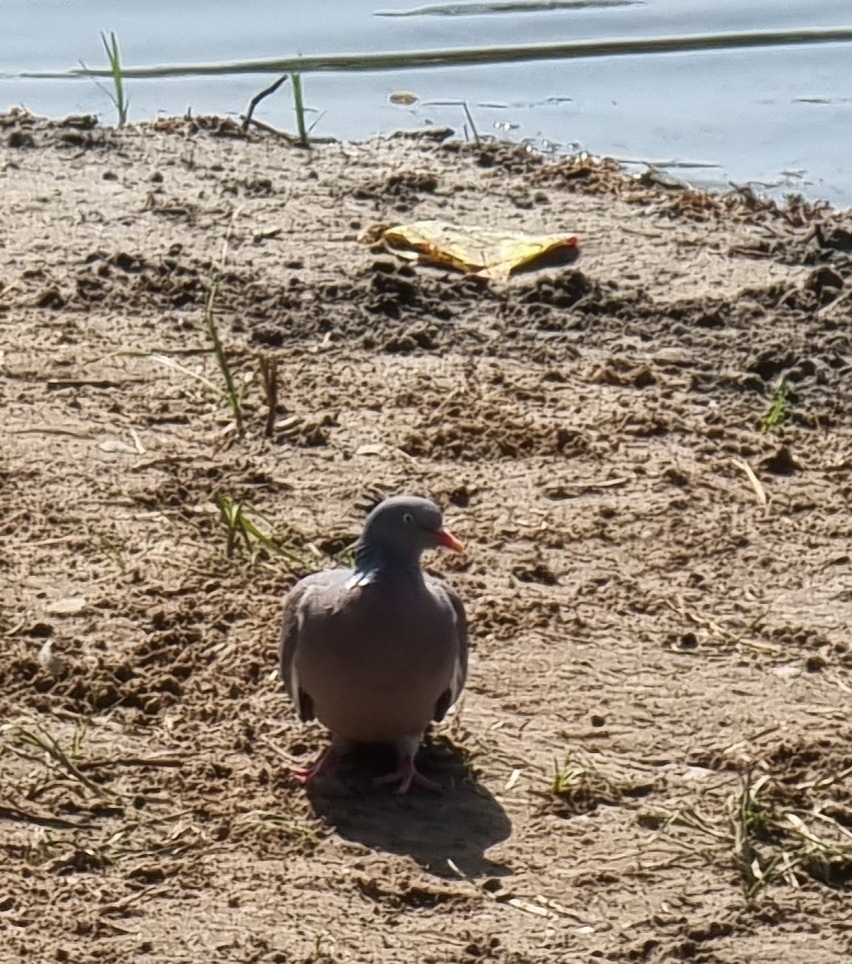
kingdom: Animalia
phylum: Chordata
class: Aves
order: Columbiformes
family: Columbidae
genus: Columba
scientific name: Columba palumbus
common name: Common wood pigeon
